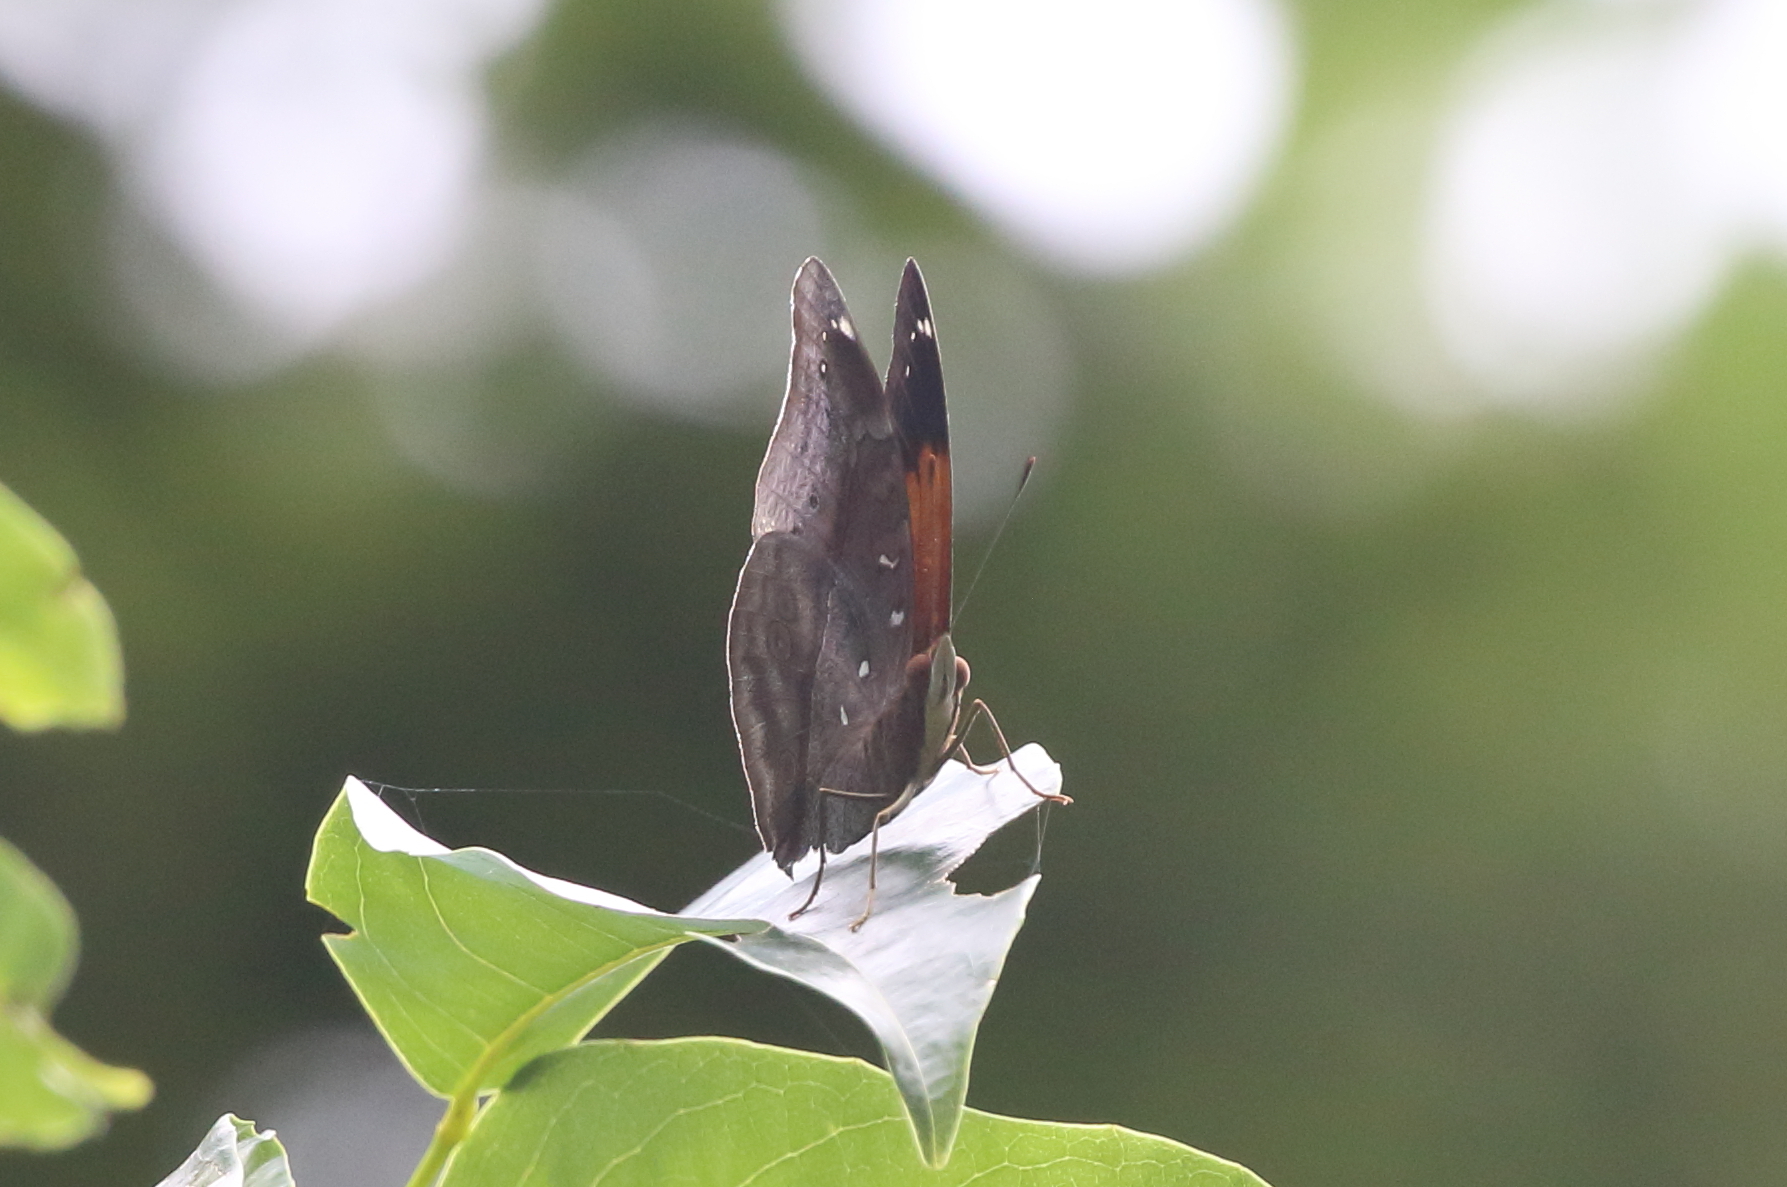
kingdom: Animalia
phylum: Arthropoda
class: Insecta
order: Lepidoptera
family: Nymphalidae
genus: Doleschallia
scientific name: Doleschallia bisaltide
